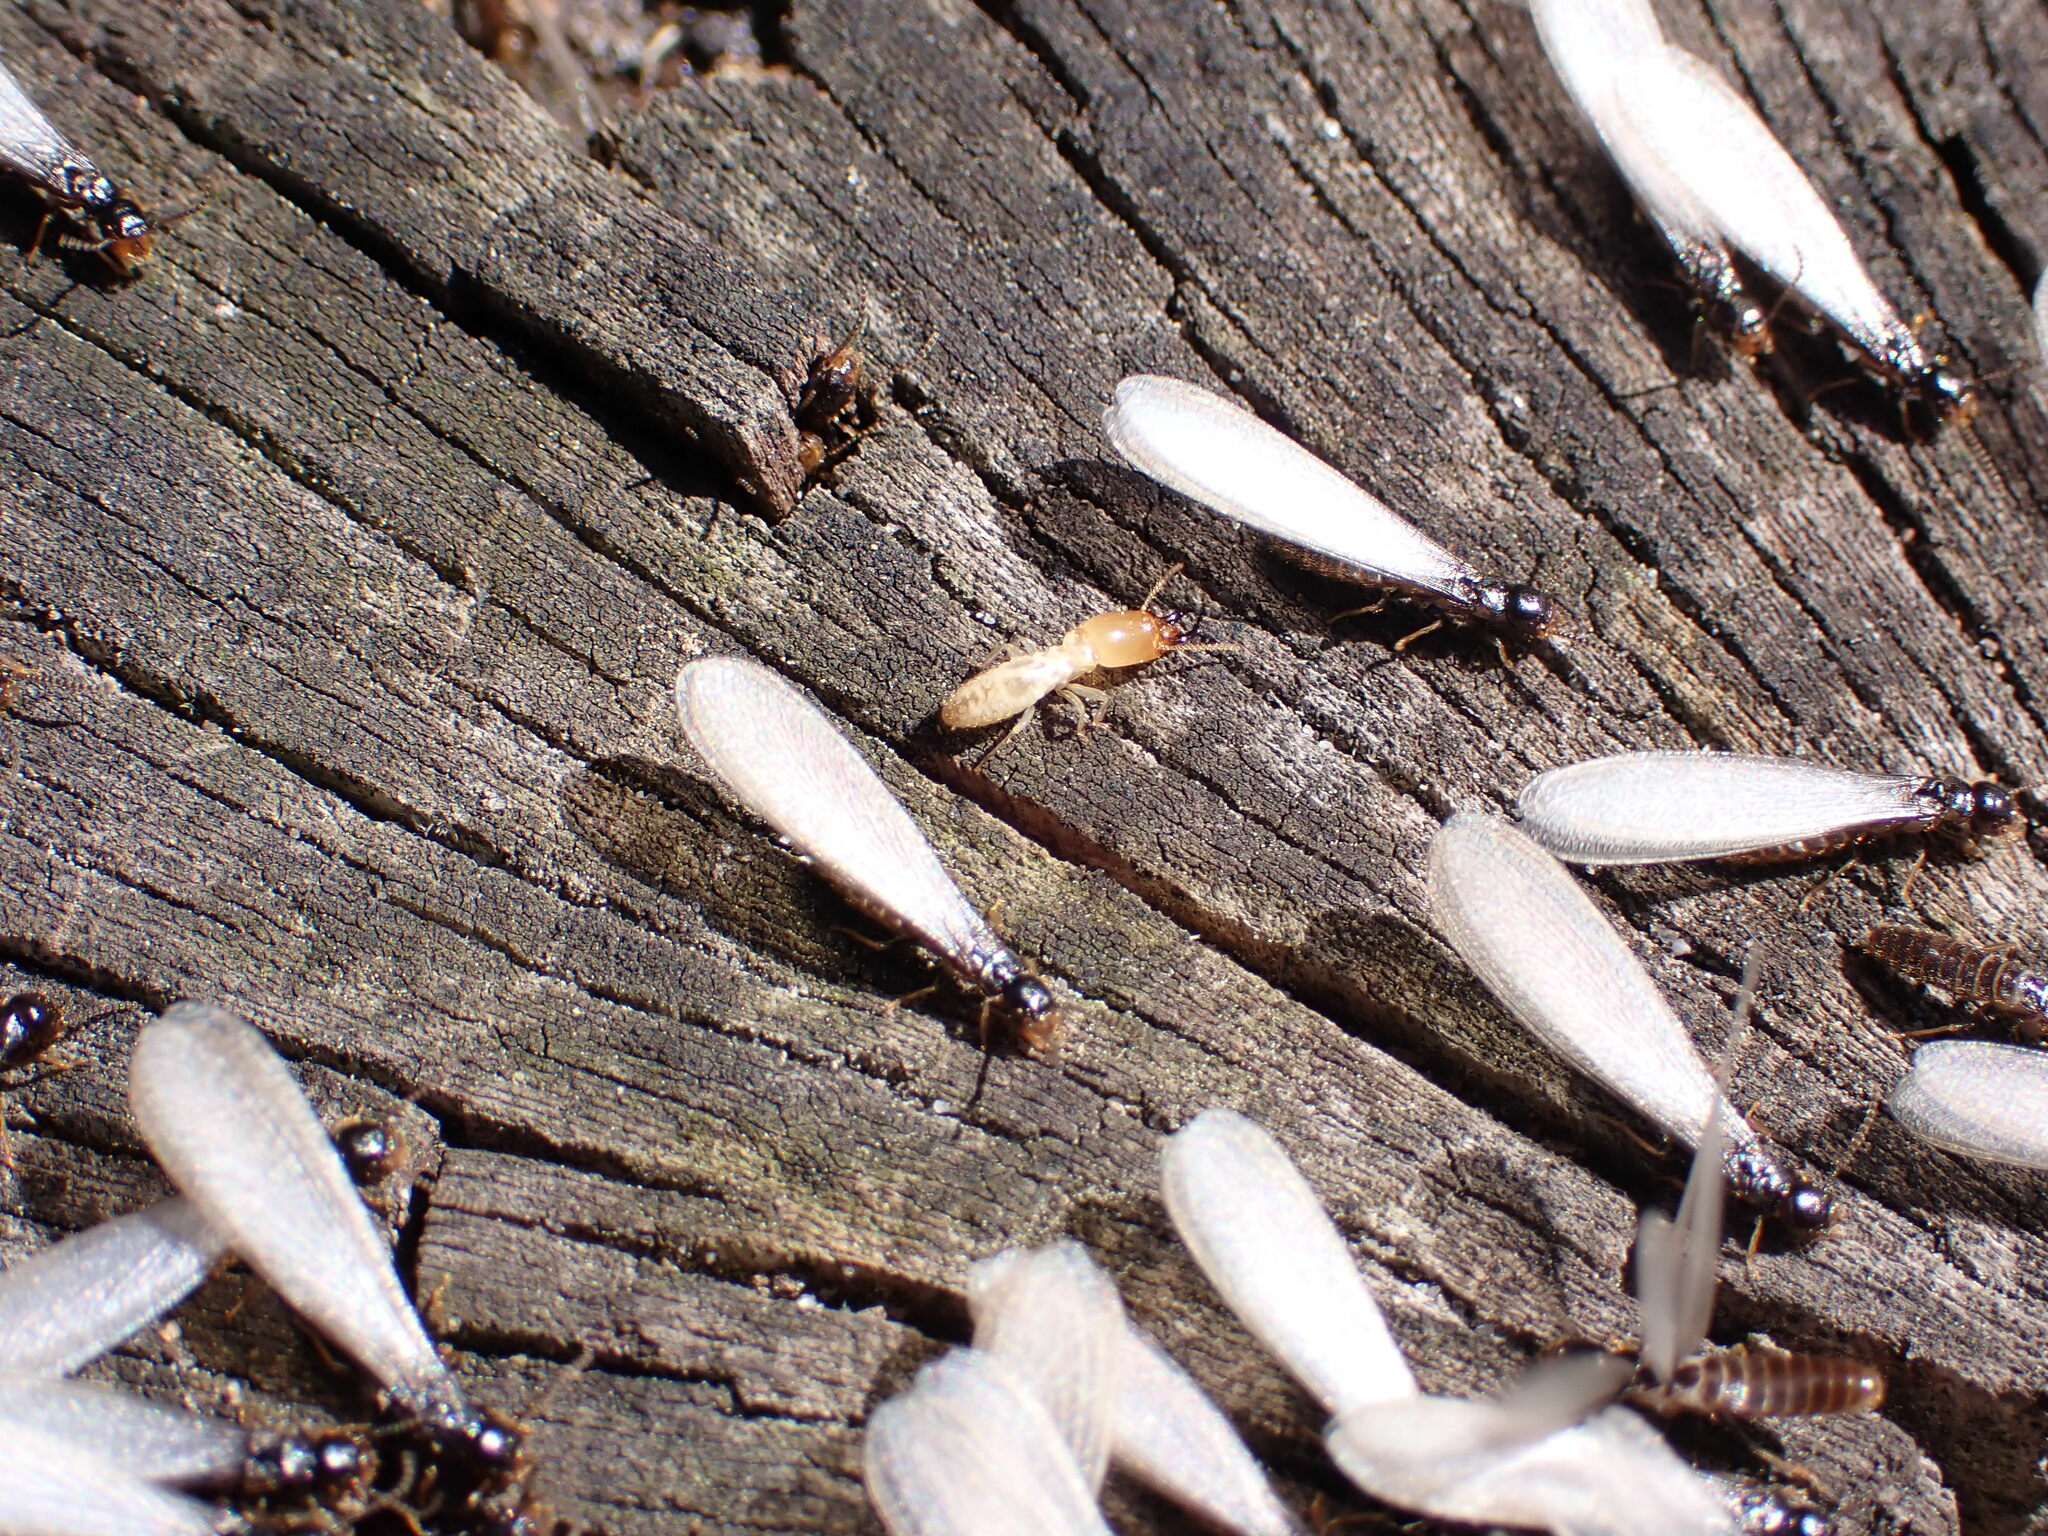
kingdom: Animalia
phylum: Arthropoda
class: Insecta
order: Blattodea
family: Rhinotermitidae
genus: Reticulitermes
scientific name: Reticulitermes flavipes
